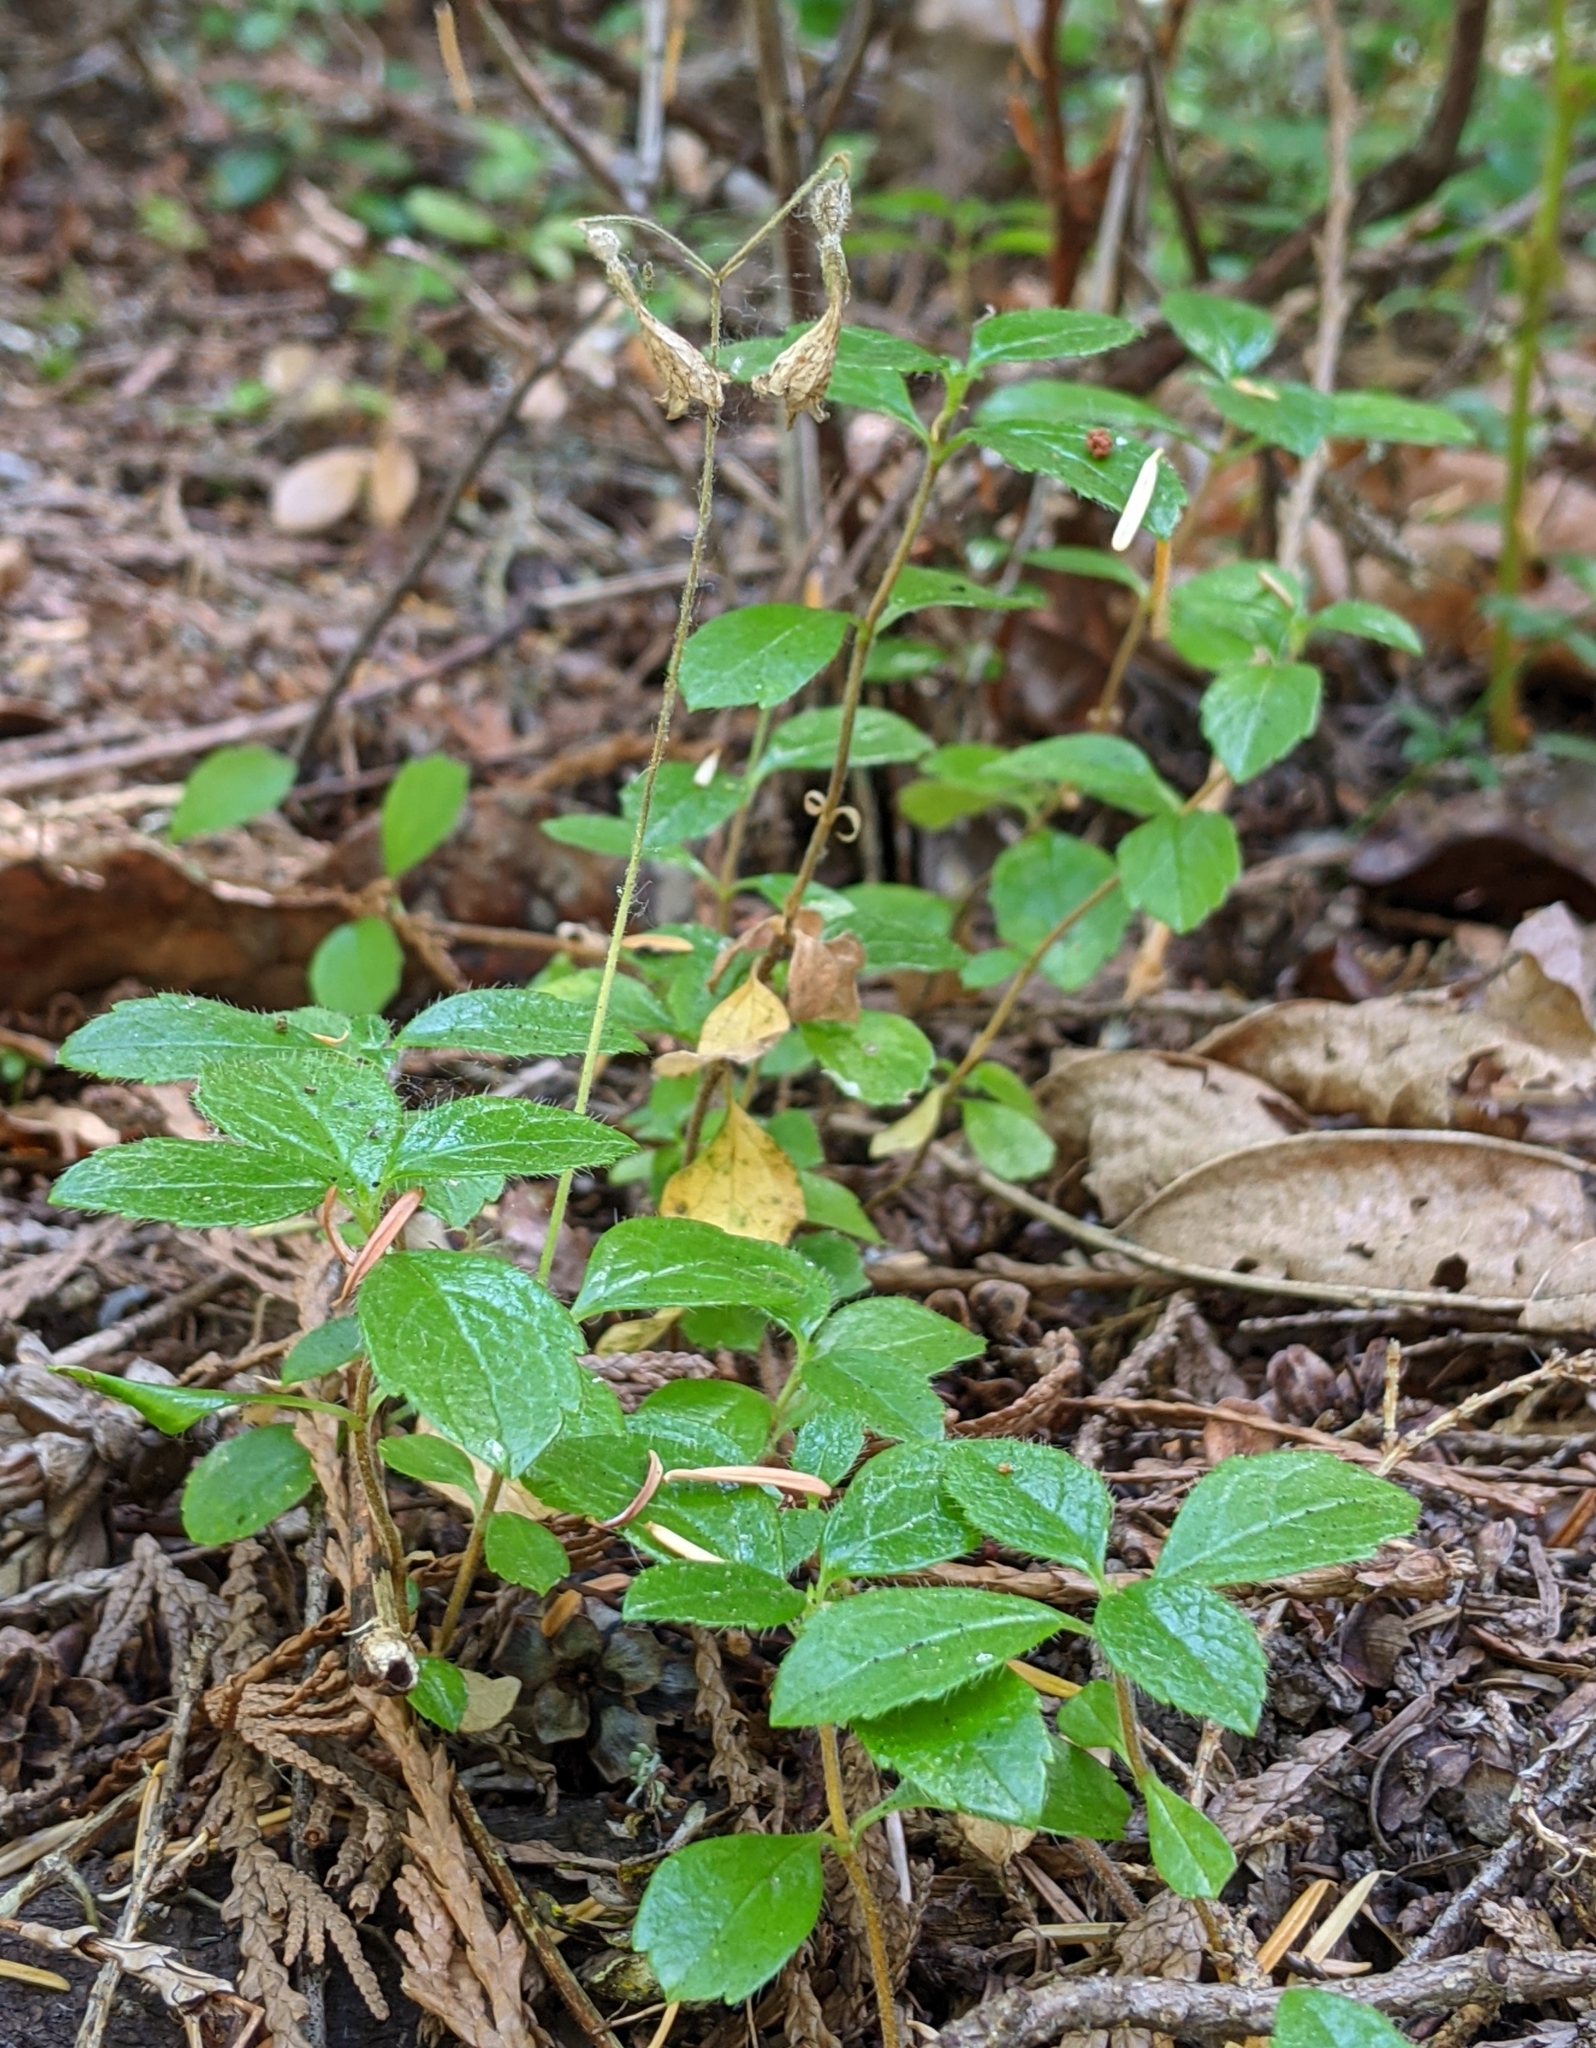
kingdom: Plantae
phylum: Tracheophyta
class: Magnoliopsida
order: Dipsacales
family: Caprifoliaceae
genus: Linnaea
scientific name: Linnaea borealis
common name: Twinflower
